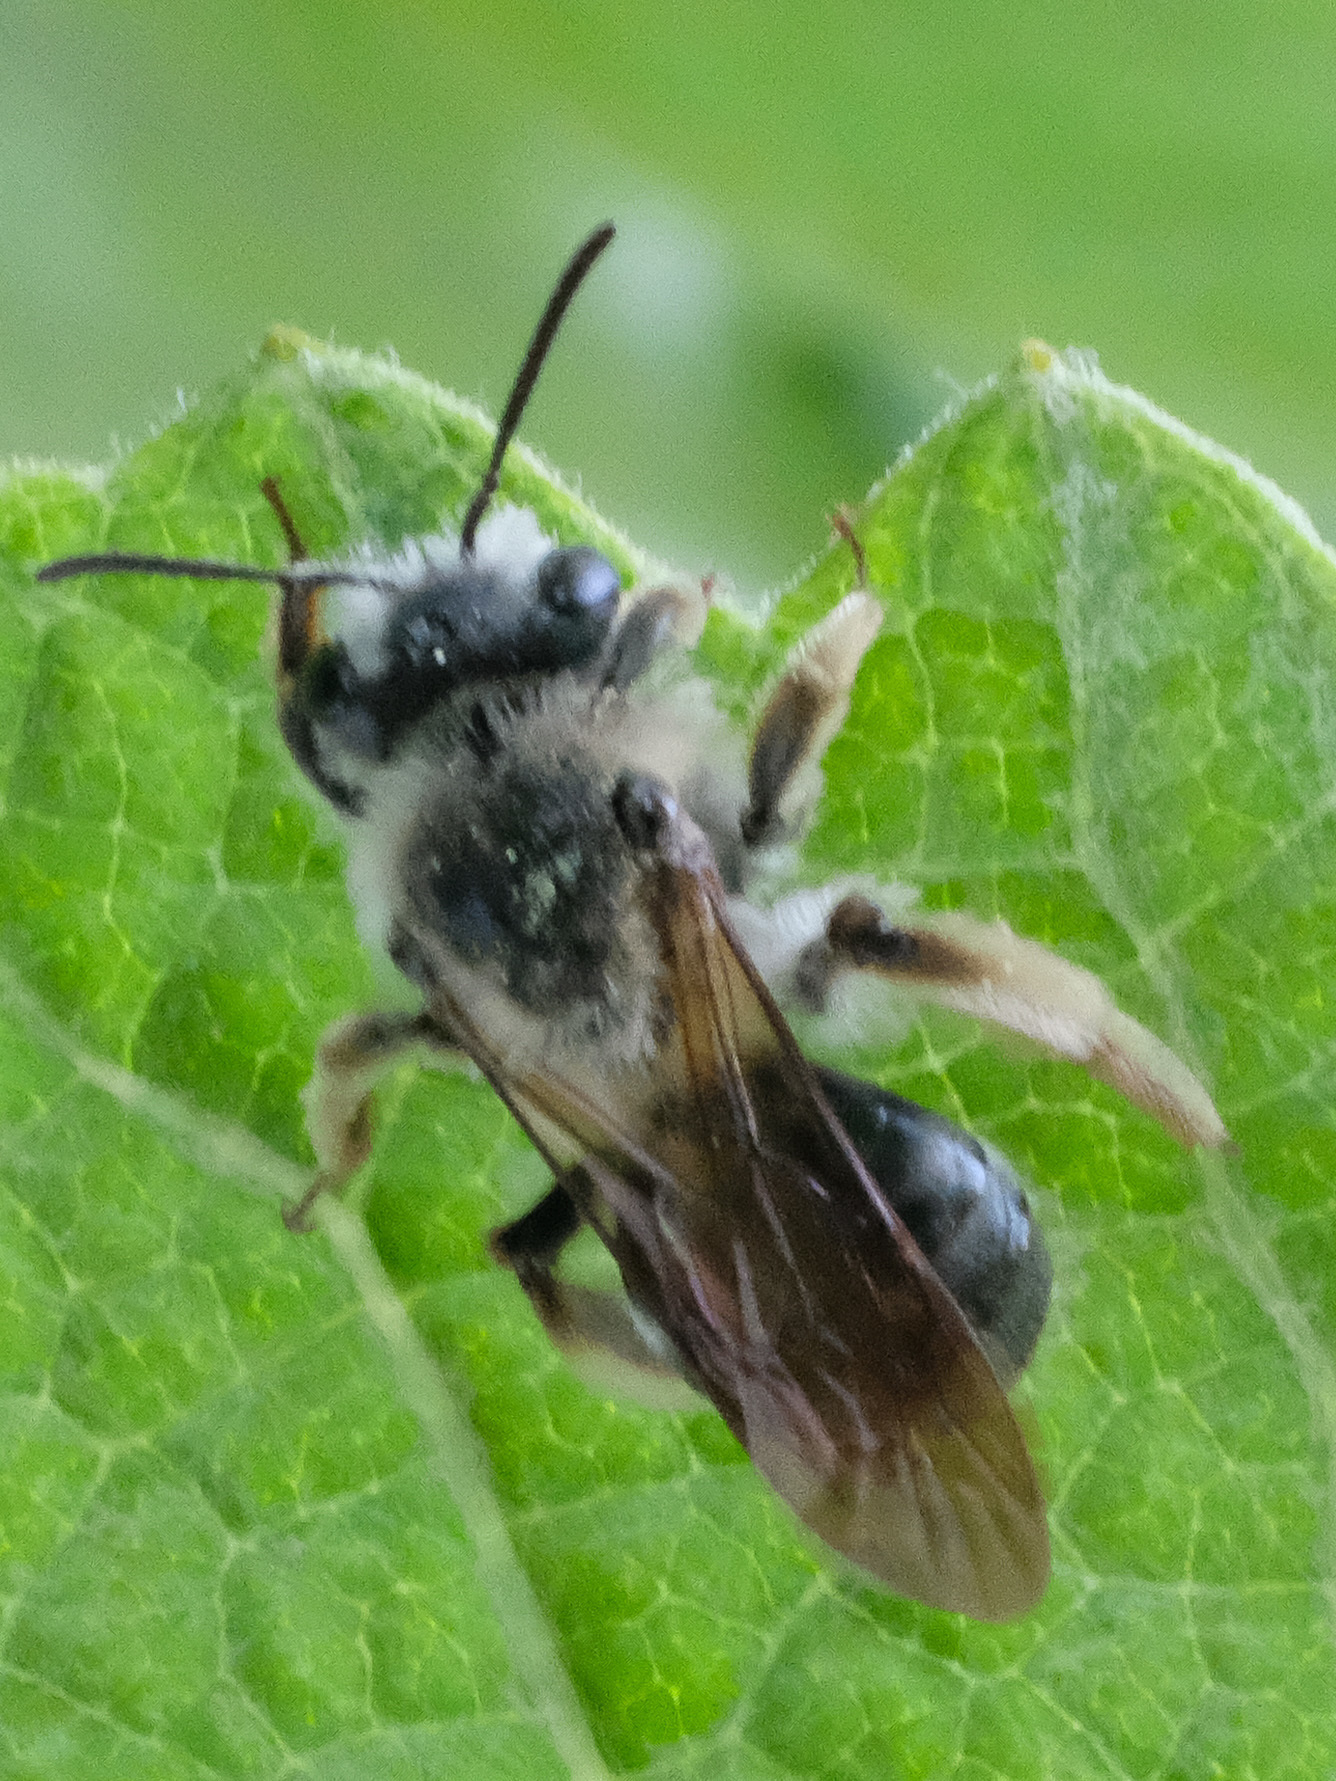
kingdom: Animalia
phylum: Arthropoda
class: Insecta
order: Hymenoptera
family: Andrenidae
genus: Andrena
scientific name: Andrena
